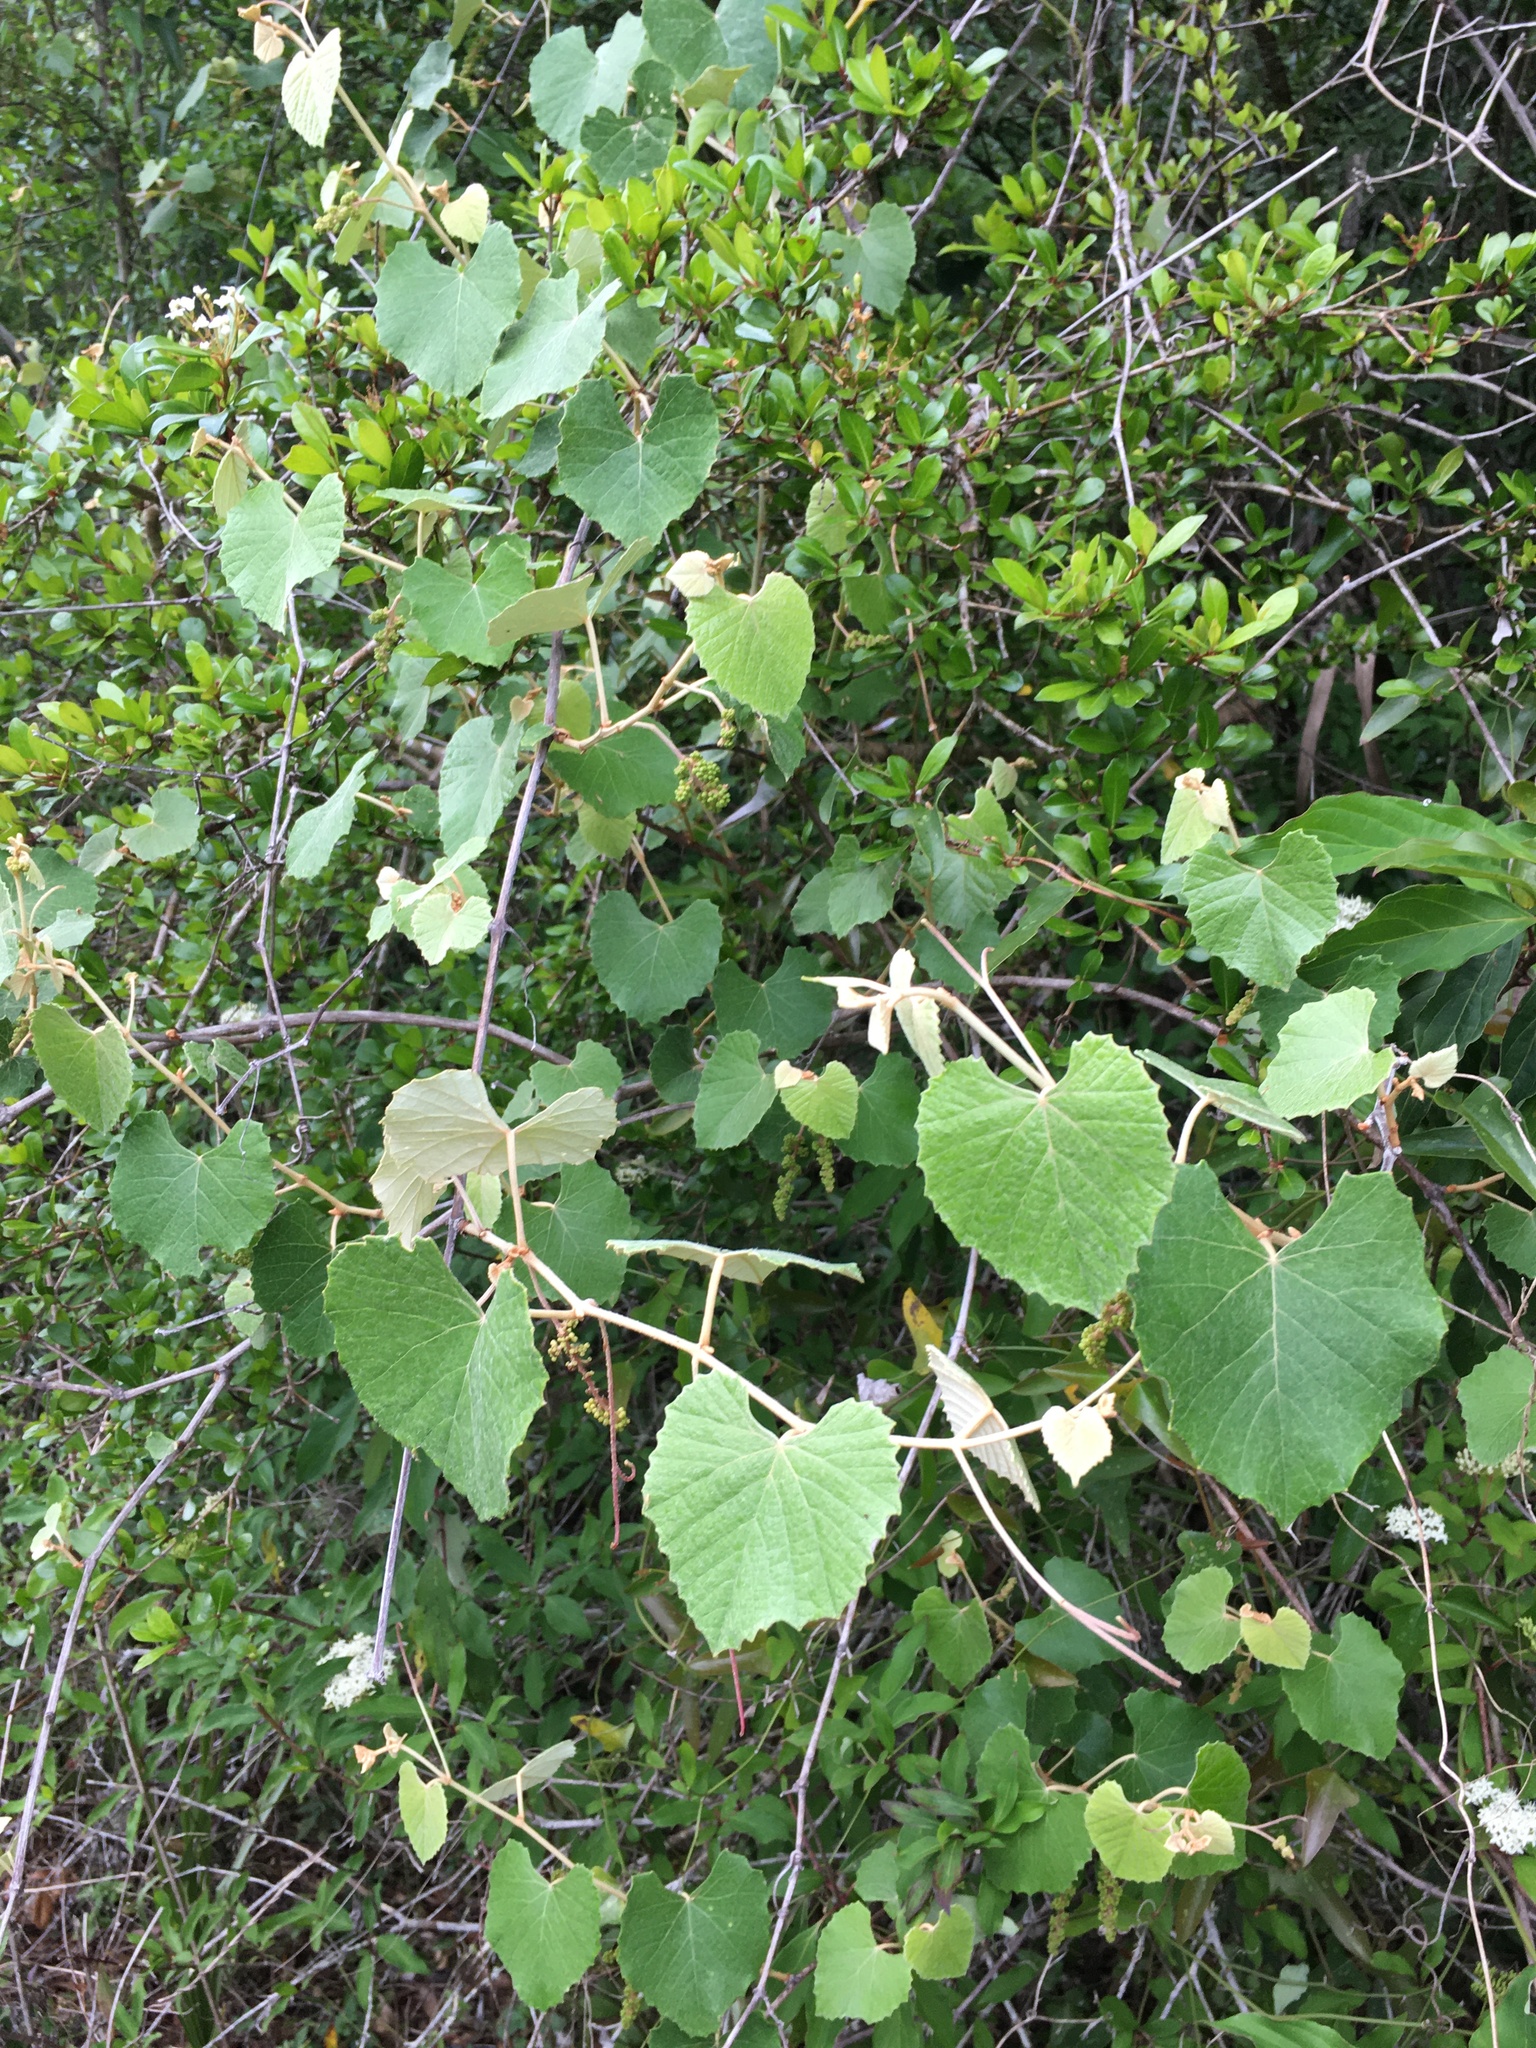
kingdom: Plantae
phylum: Tracheophyta
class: Magnoliopsida
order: Vitales
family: Vitaceae
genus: Vitis
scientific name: Vitis shuttleworthii
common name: Caloosa grape
